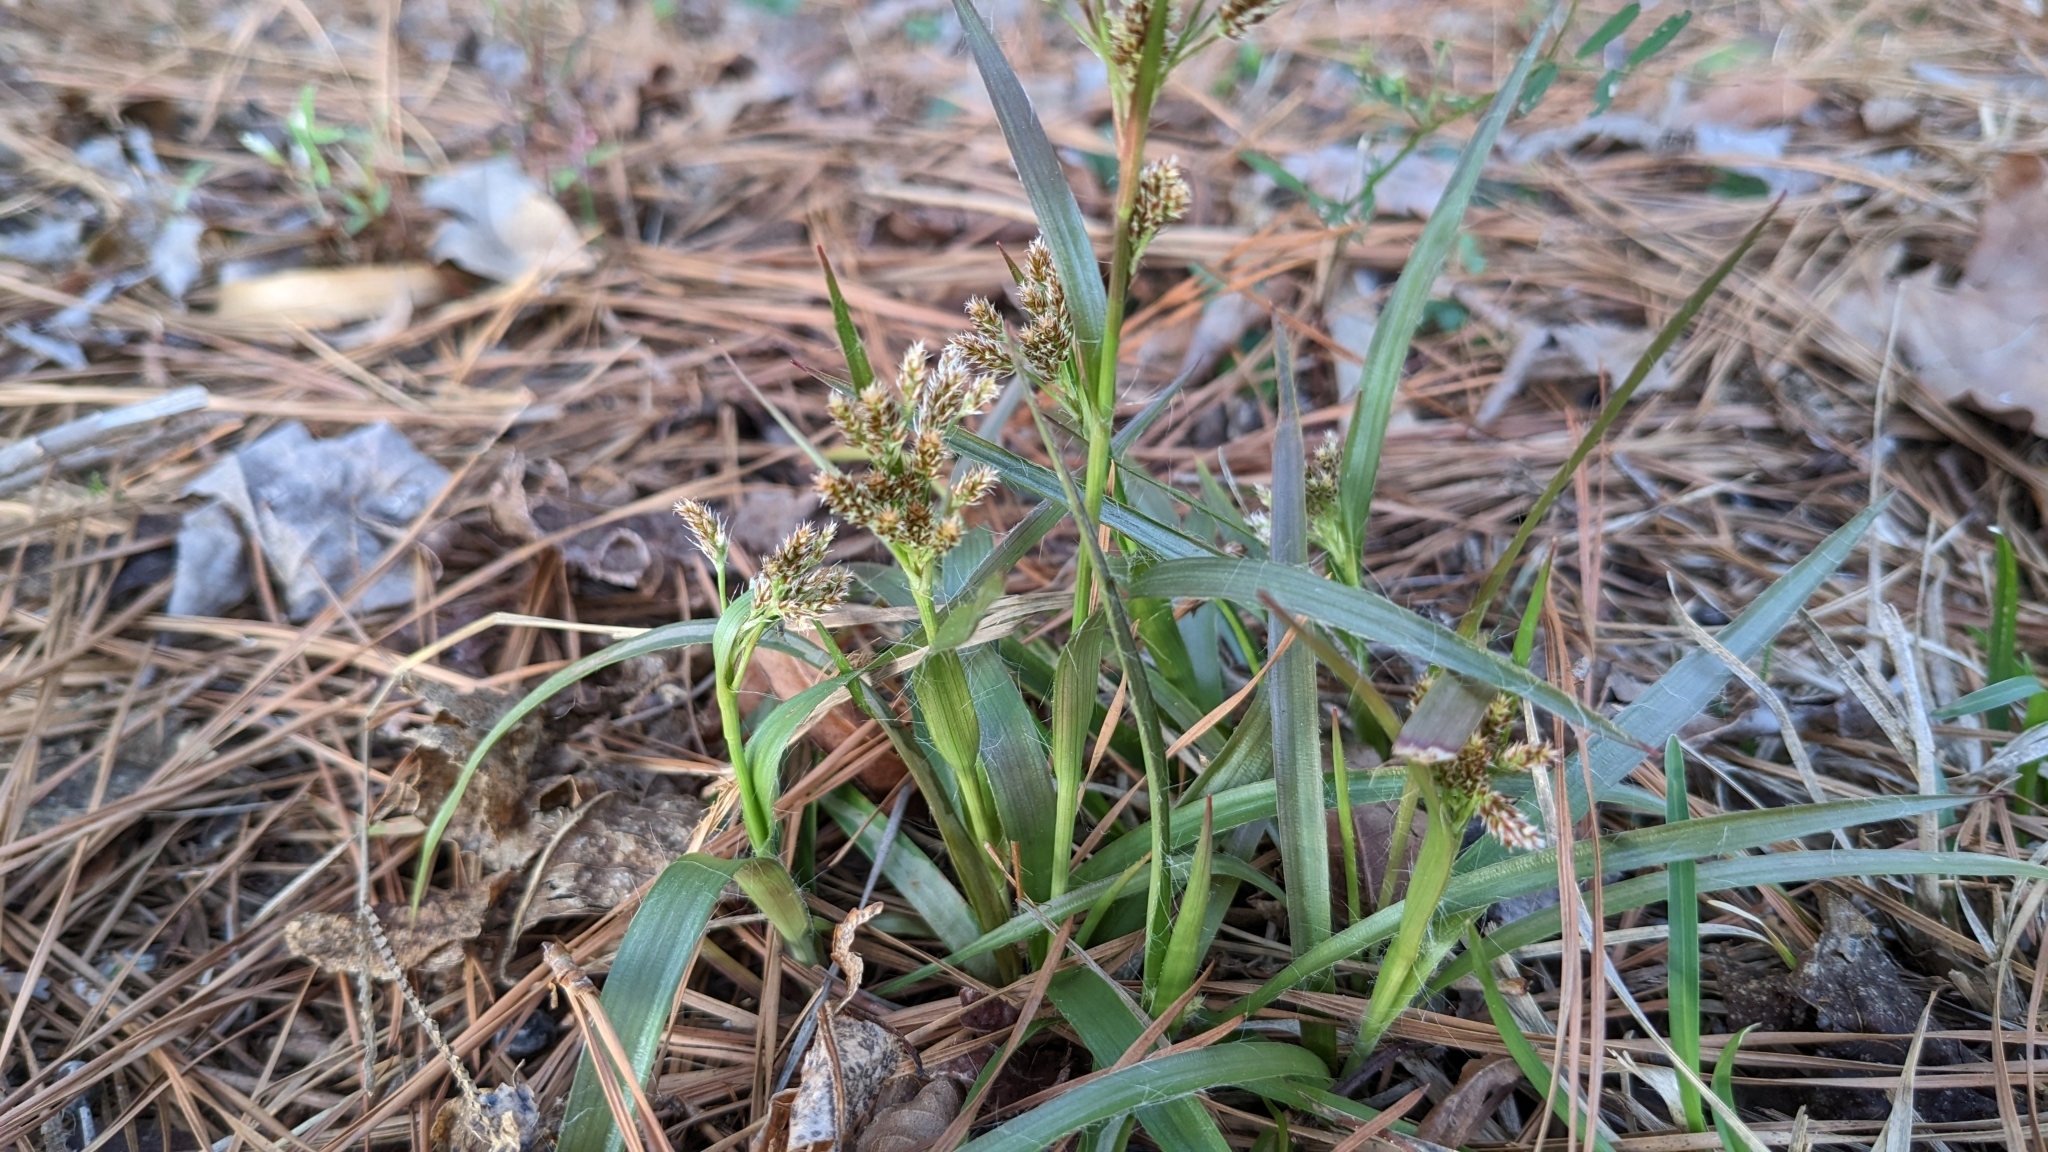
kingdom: Plantae
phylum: Tracheophyta
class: Liliopsida
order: Poales
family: Juncaceae
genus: Luzula
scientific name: Luzula bulbosa
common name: Bulbous woodrush
